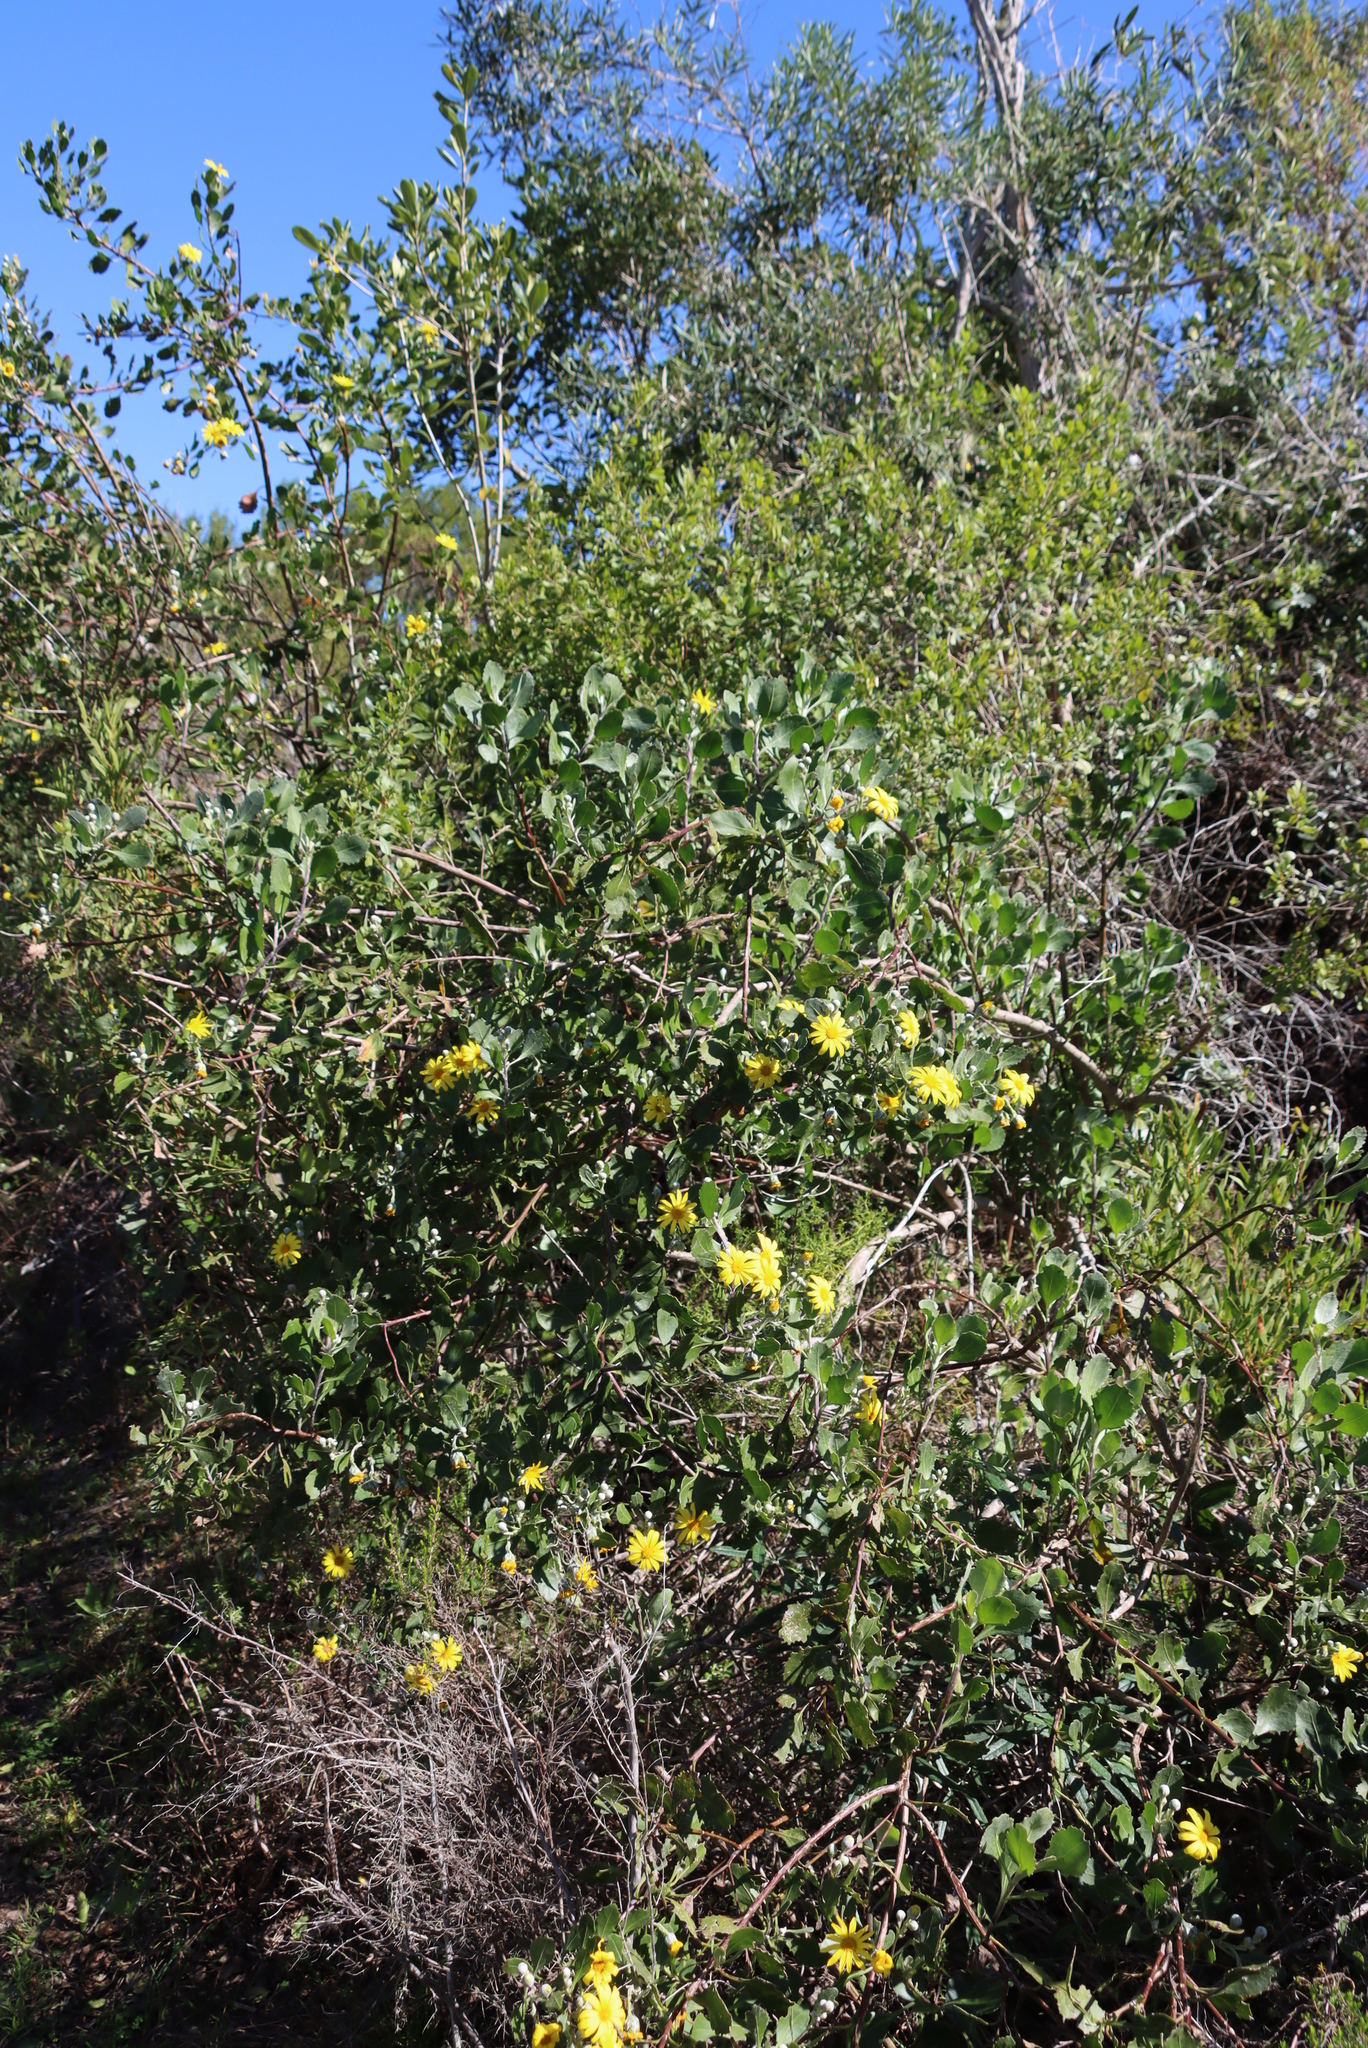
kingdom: Plantae
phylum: Tracheophyta
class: Magnoliopsida
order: Asterales
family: Asteraceae
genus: Osteospermum
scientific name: Osteospermum moniliferum
